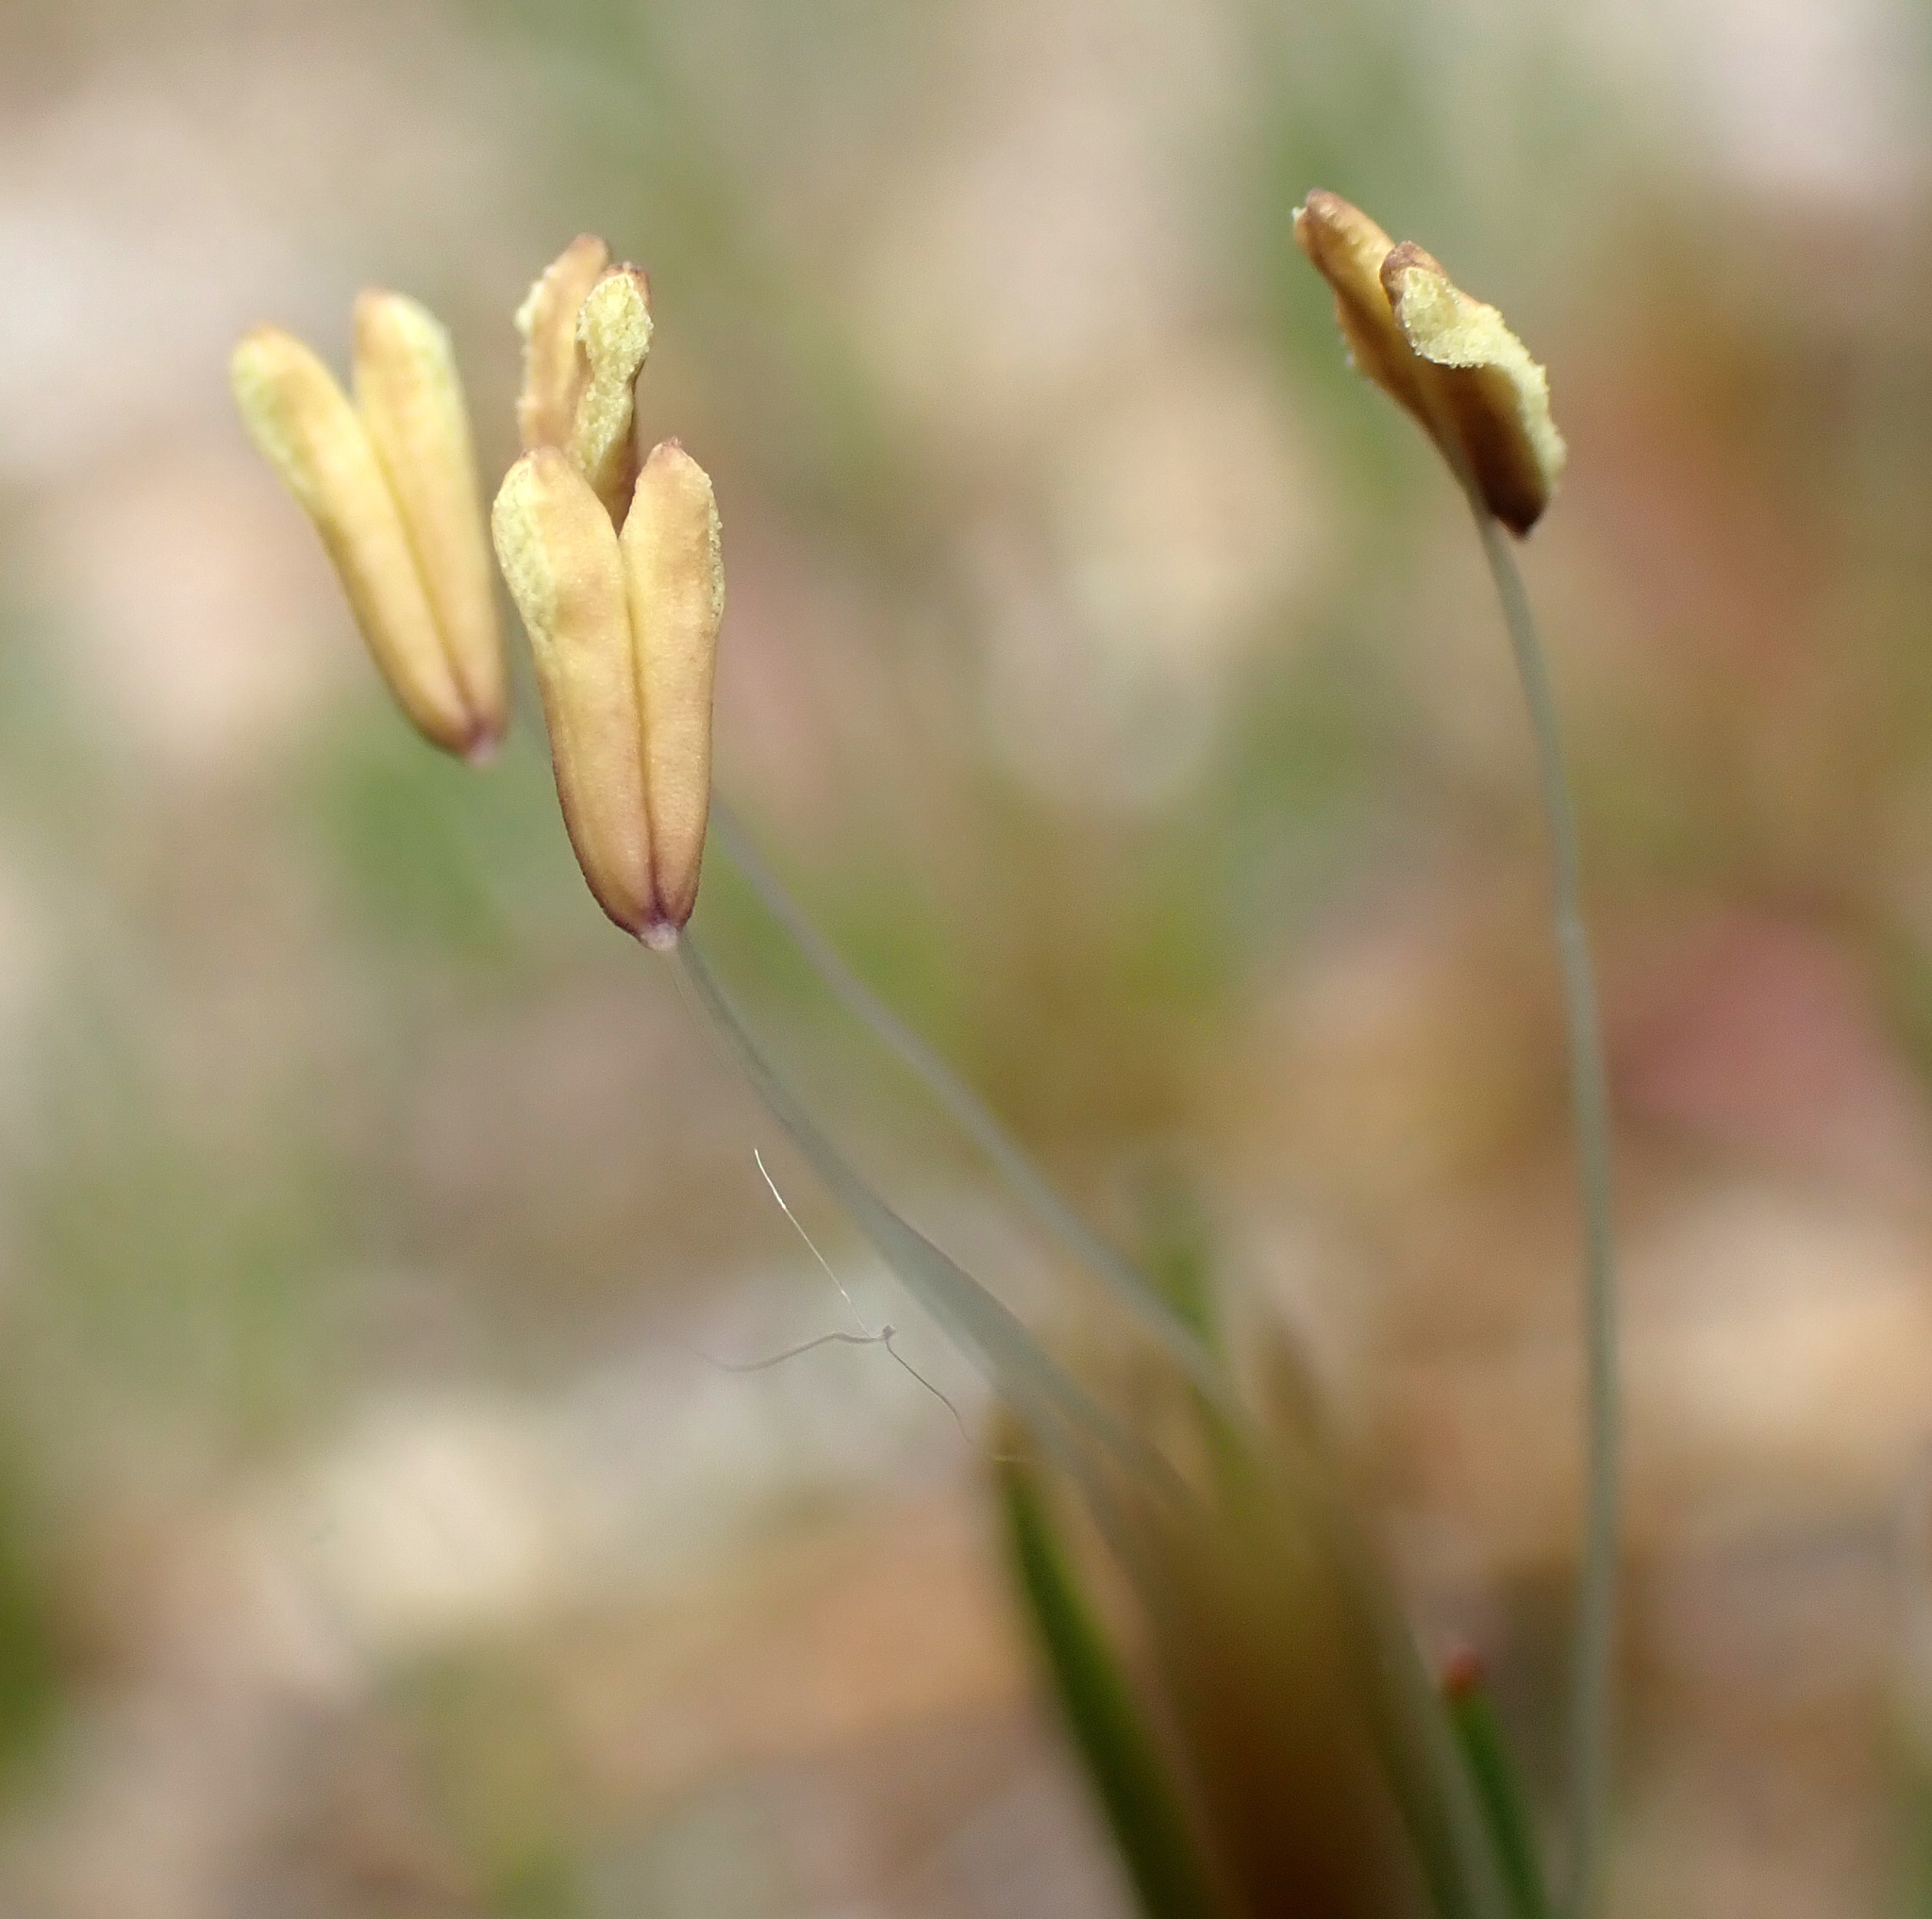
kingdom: Plantae
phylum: Tracheophyta
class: Magnoliopsida
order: Lamiales
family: Plantaginaceae
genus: Littorella
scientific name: Littorella uniflora
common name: Shoreweed
